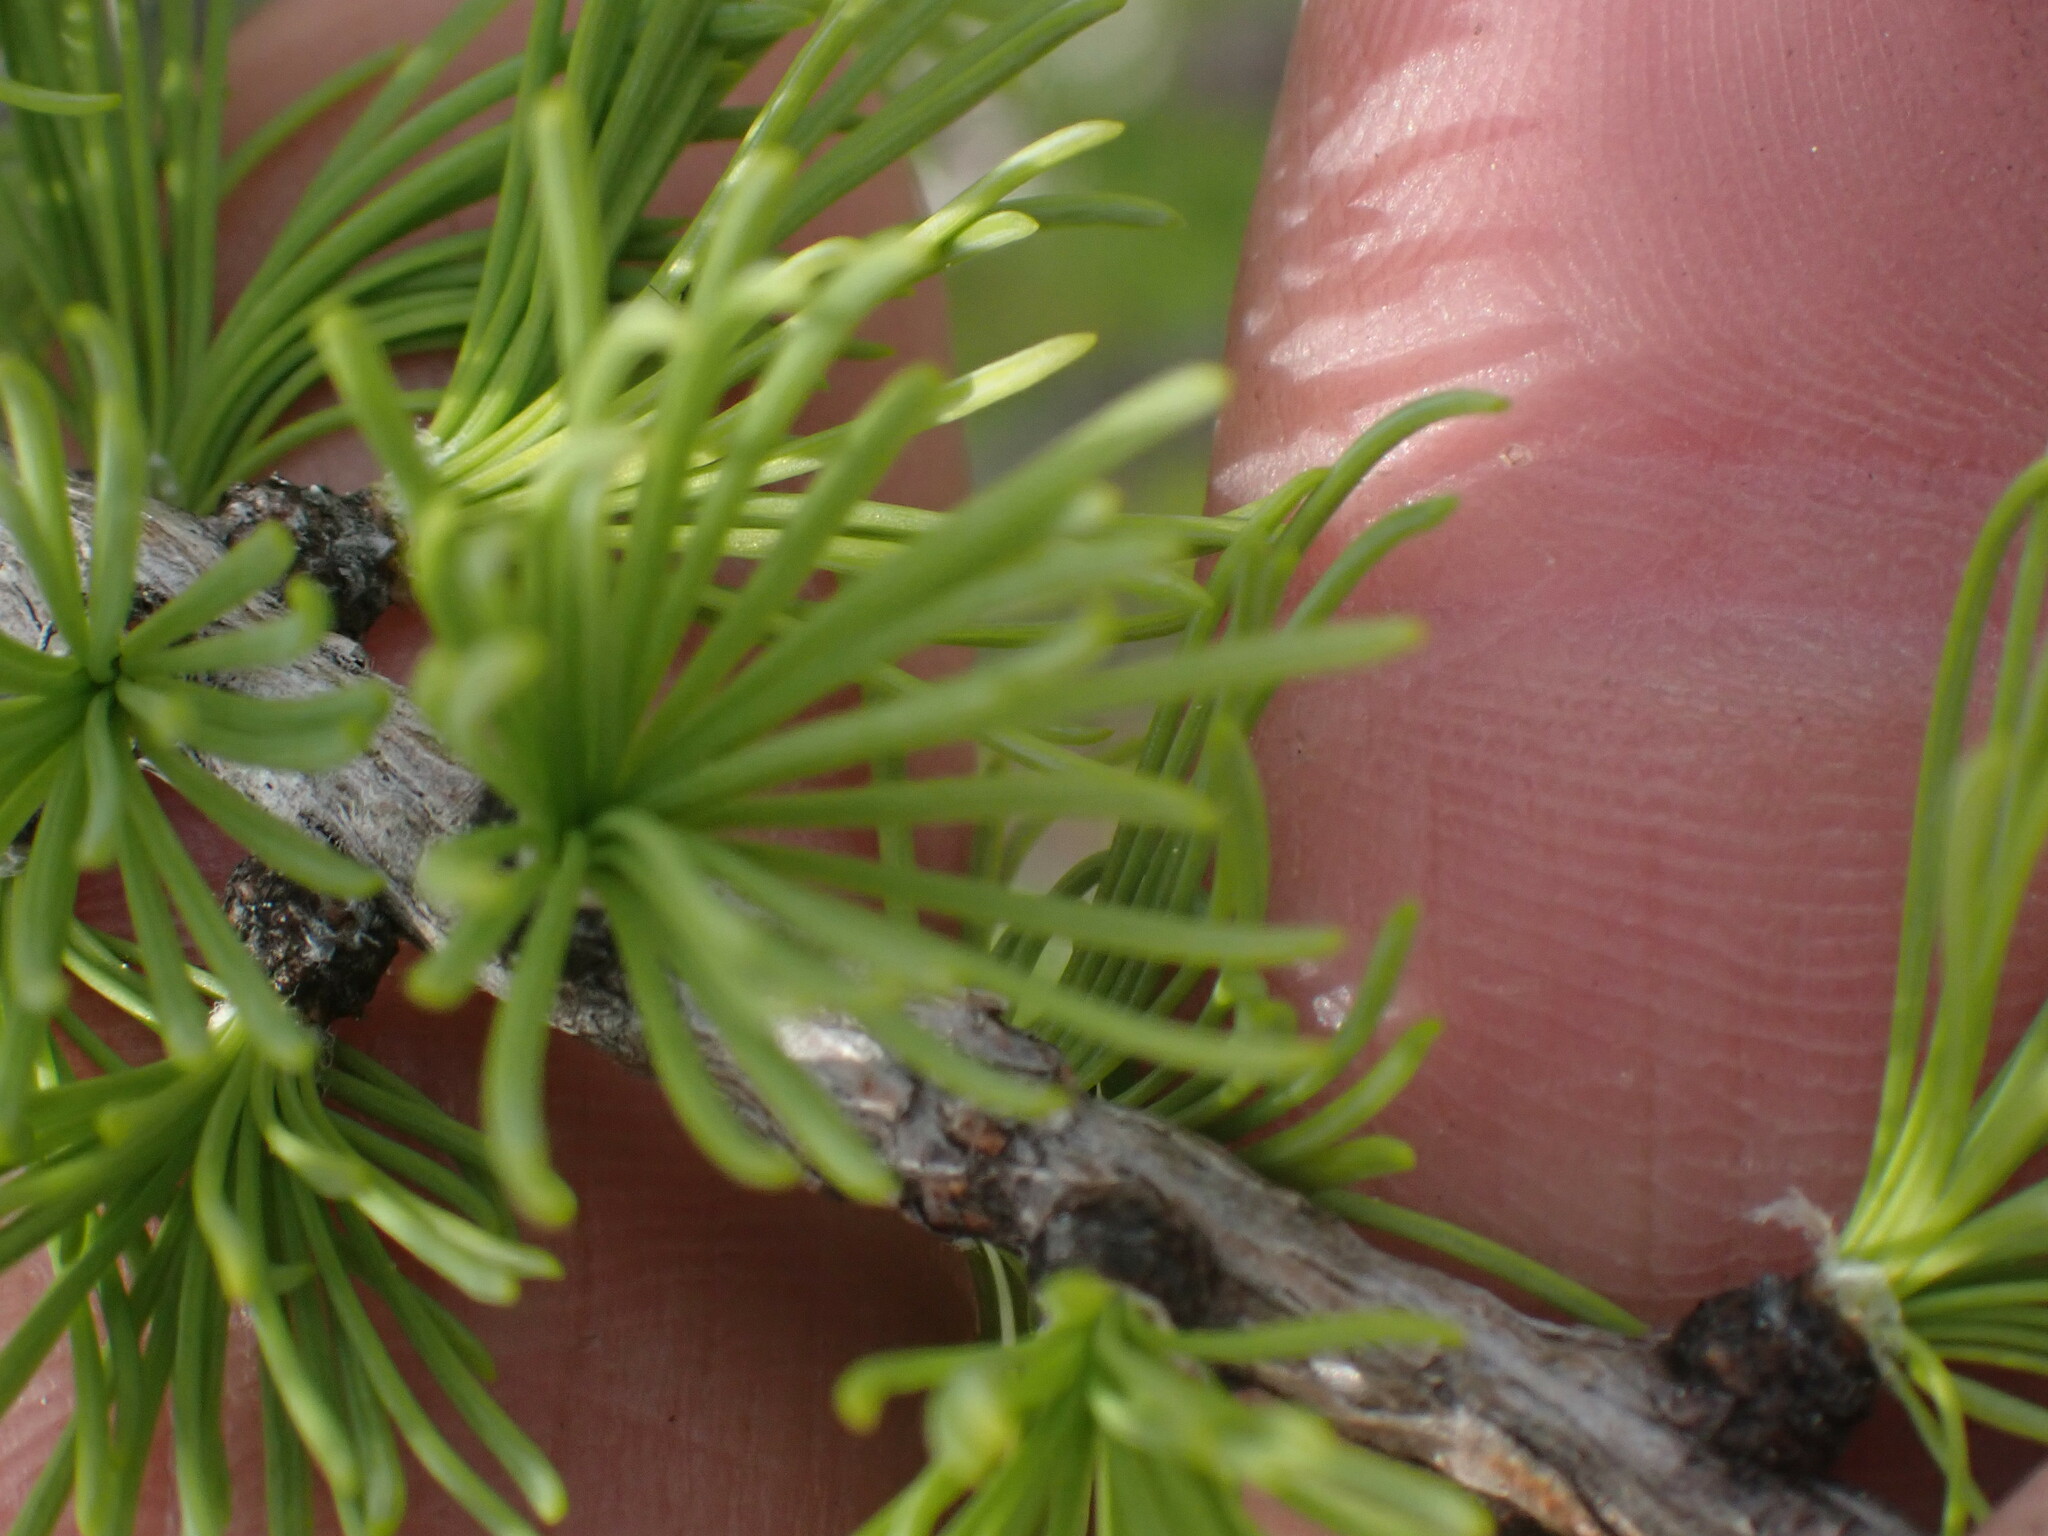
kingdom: Plantae
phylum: Tracheophyta
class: Pinopsida
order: Pinales
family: Pinaceae
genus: Larix
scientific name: Larix lyallii
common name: Alpine larch
